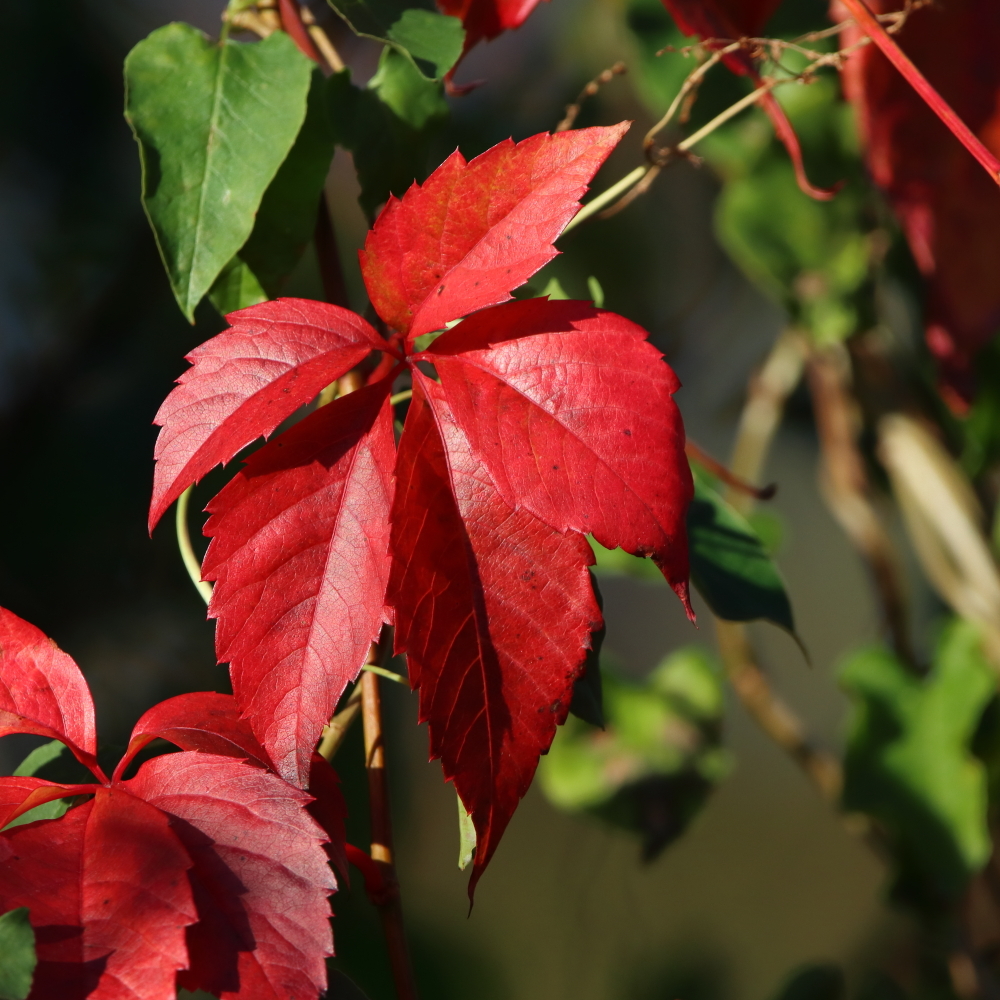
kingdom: Plantae
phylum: Tracheophyta
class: Magnoliopsida
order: Vitales
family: Vitaceae
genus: Parthenocissus
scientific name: Parthenocissus quinquefolia
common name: Virginia-creeper
